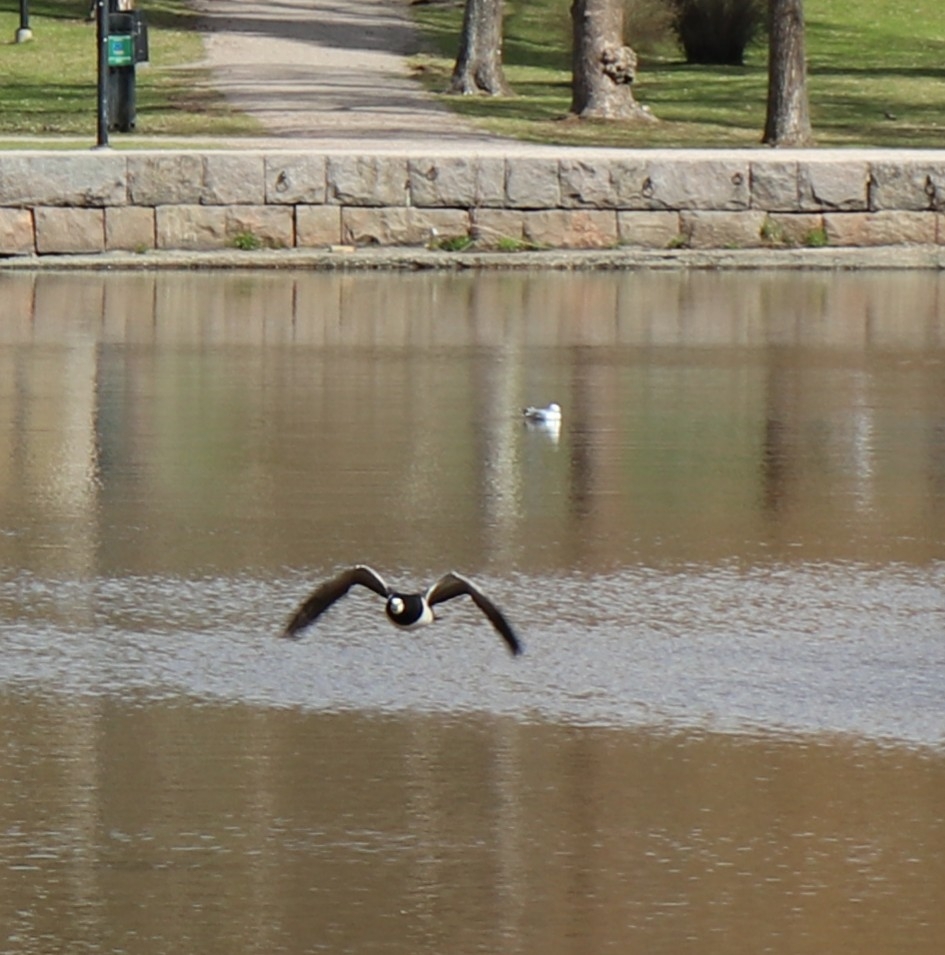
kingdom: Animalia
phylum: Chordata
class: Aves
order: Anseriformes
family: Anatidae
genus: Branta
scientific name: Branta leucopsis
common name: Barnacle goose
